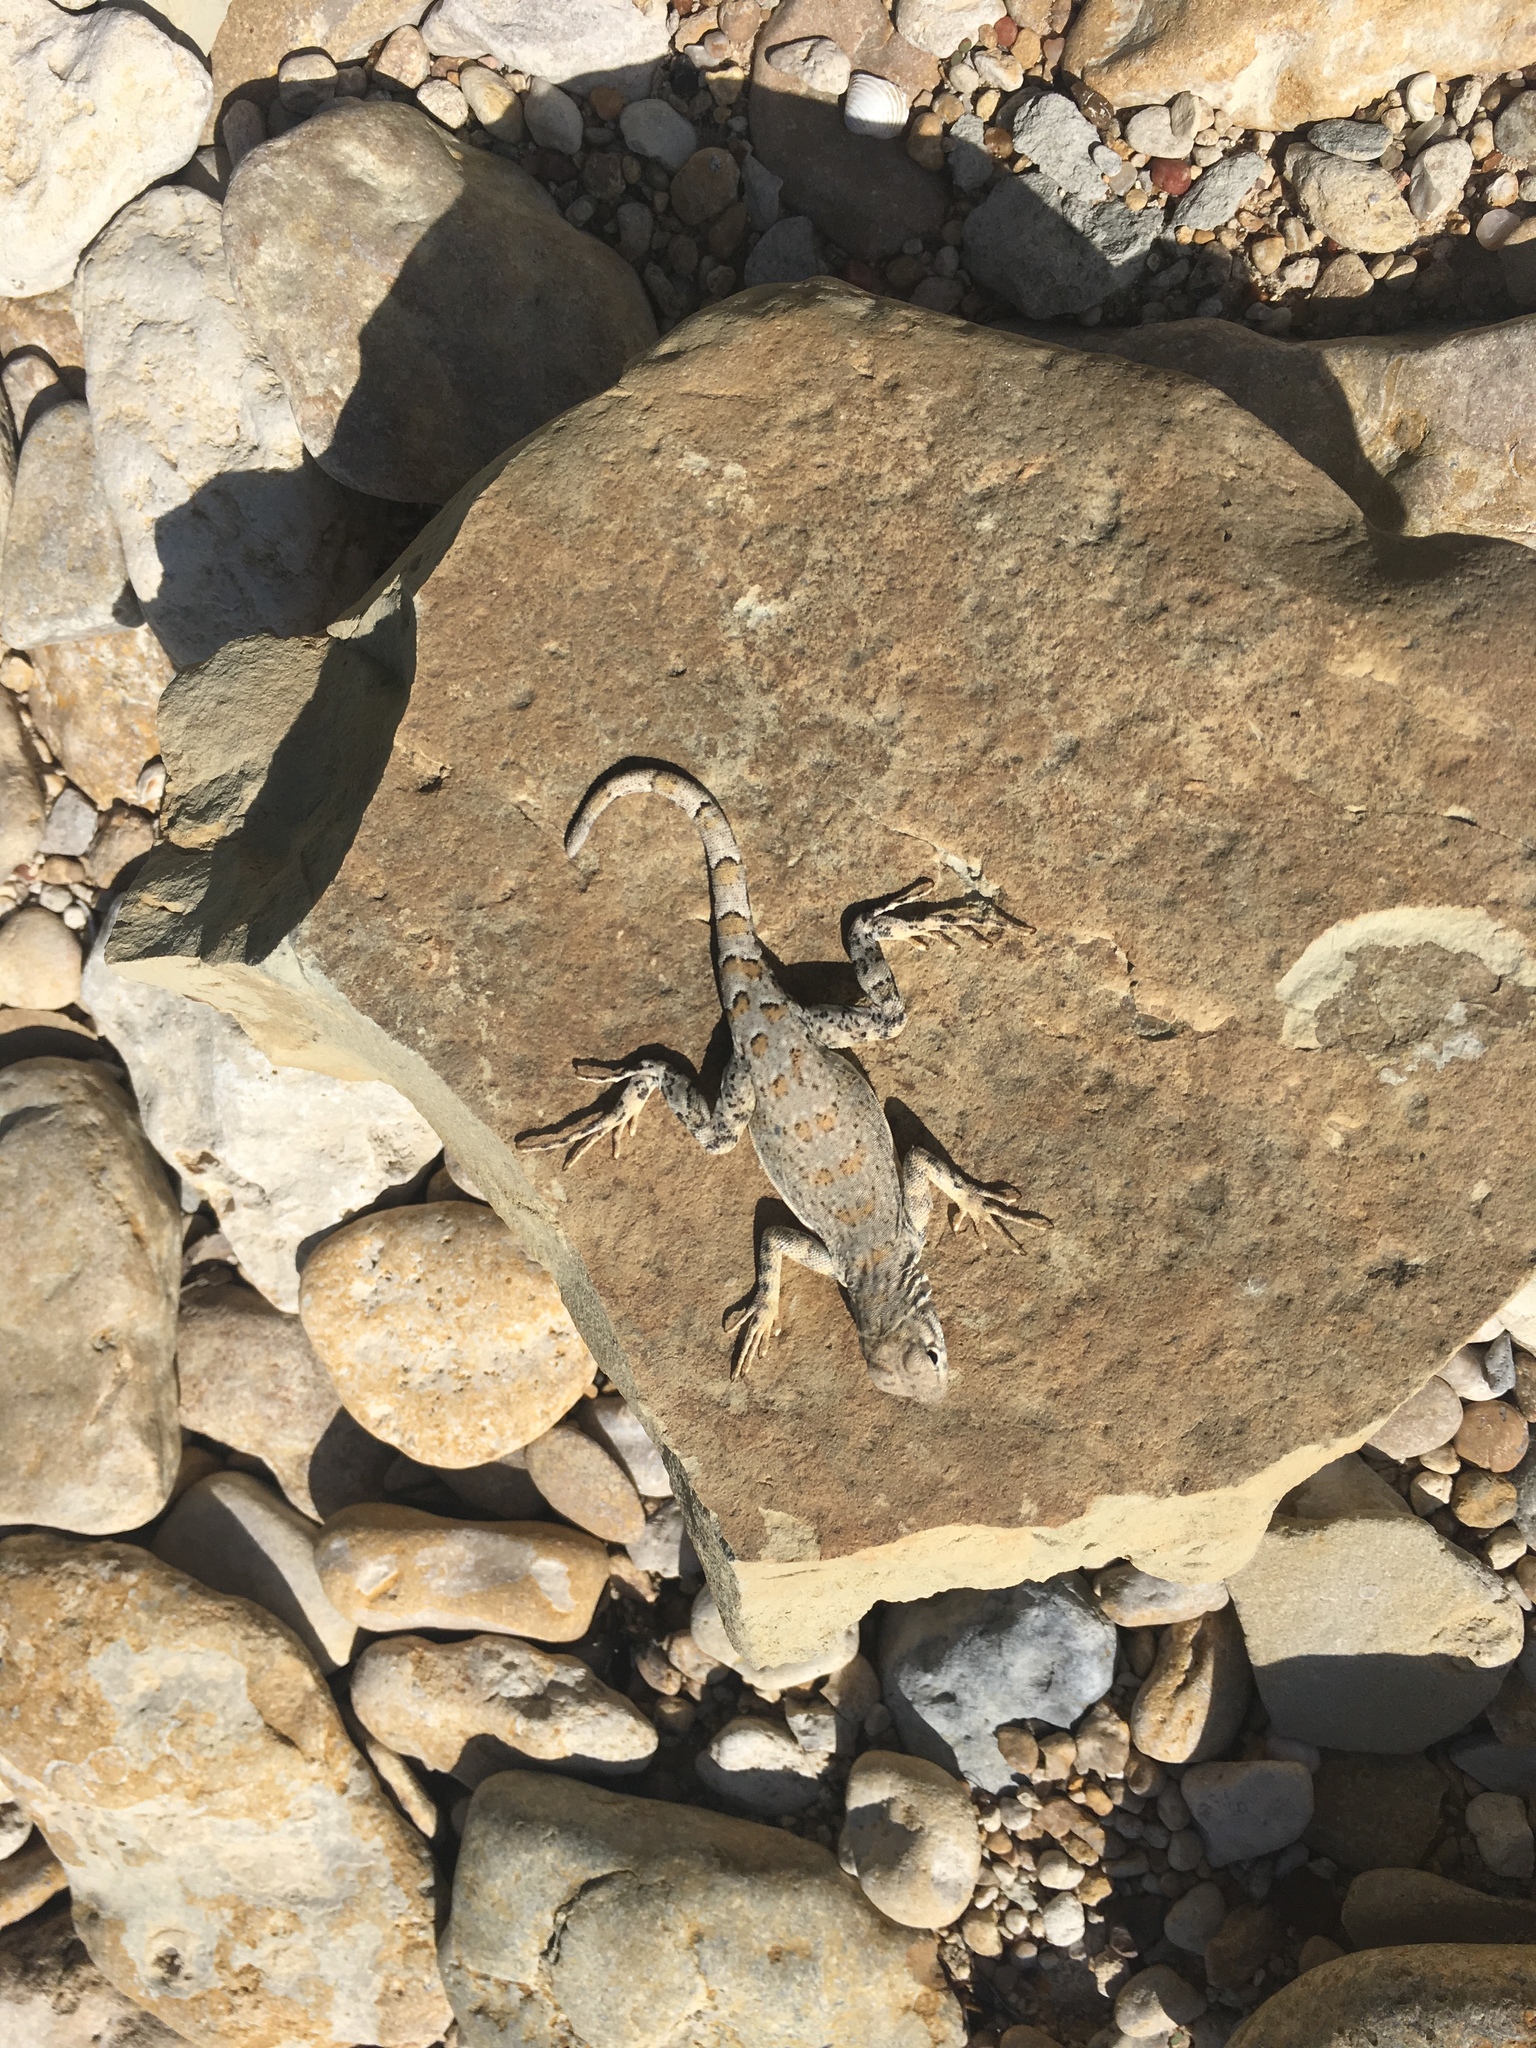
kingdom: Animalia
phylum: Chordata
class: Squamata
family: Phrynosomatidae
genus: Cophosaurus
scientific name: Cophosaurus texanus
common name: Greater earless lizard
